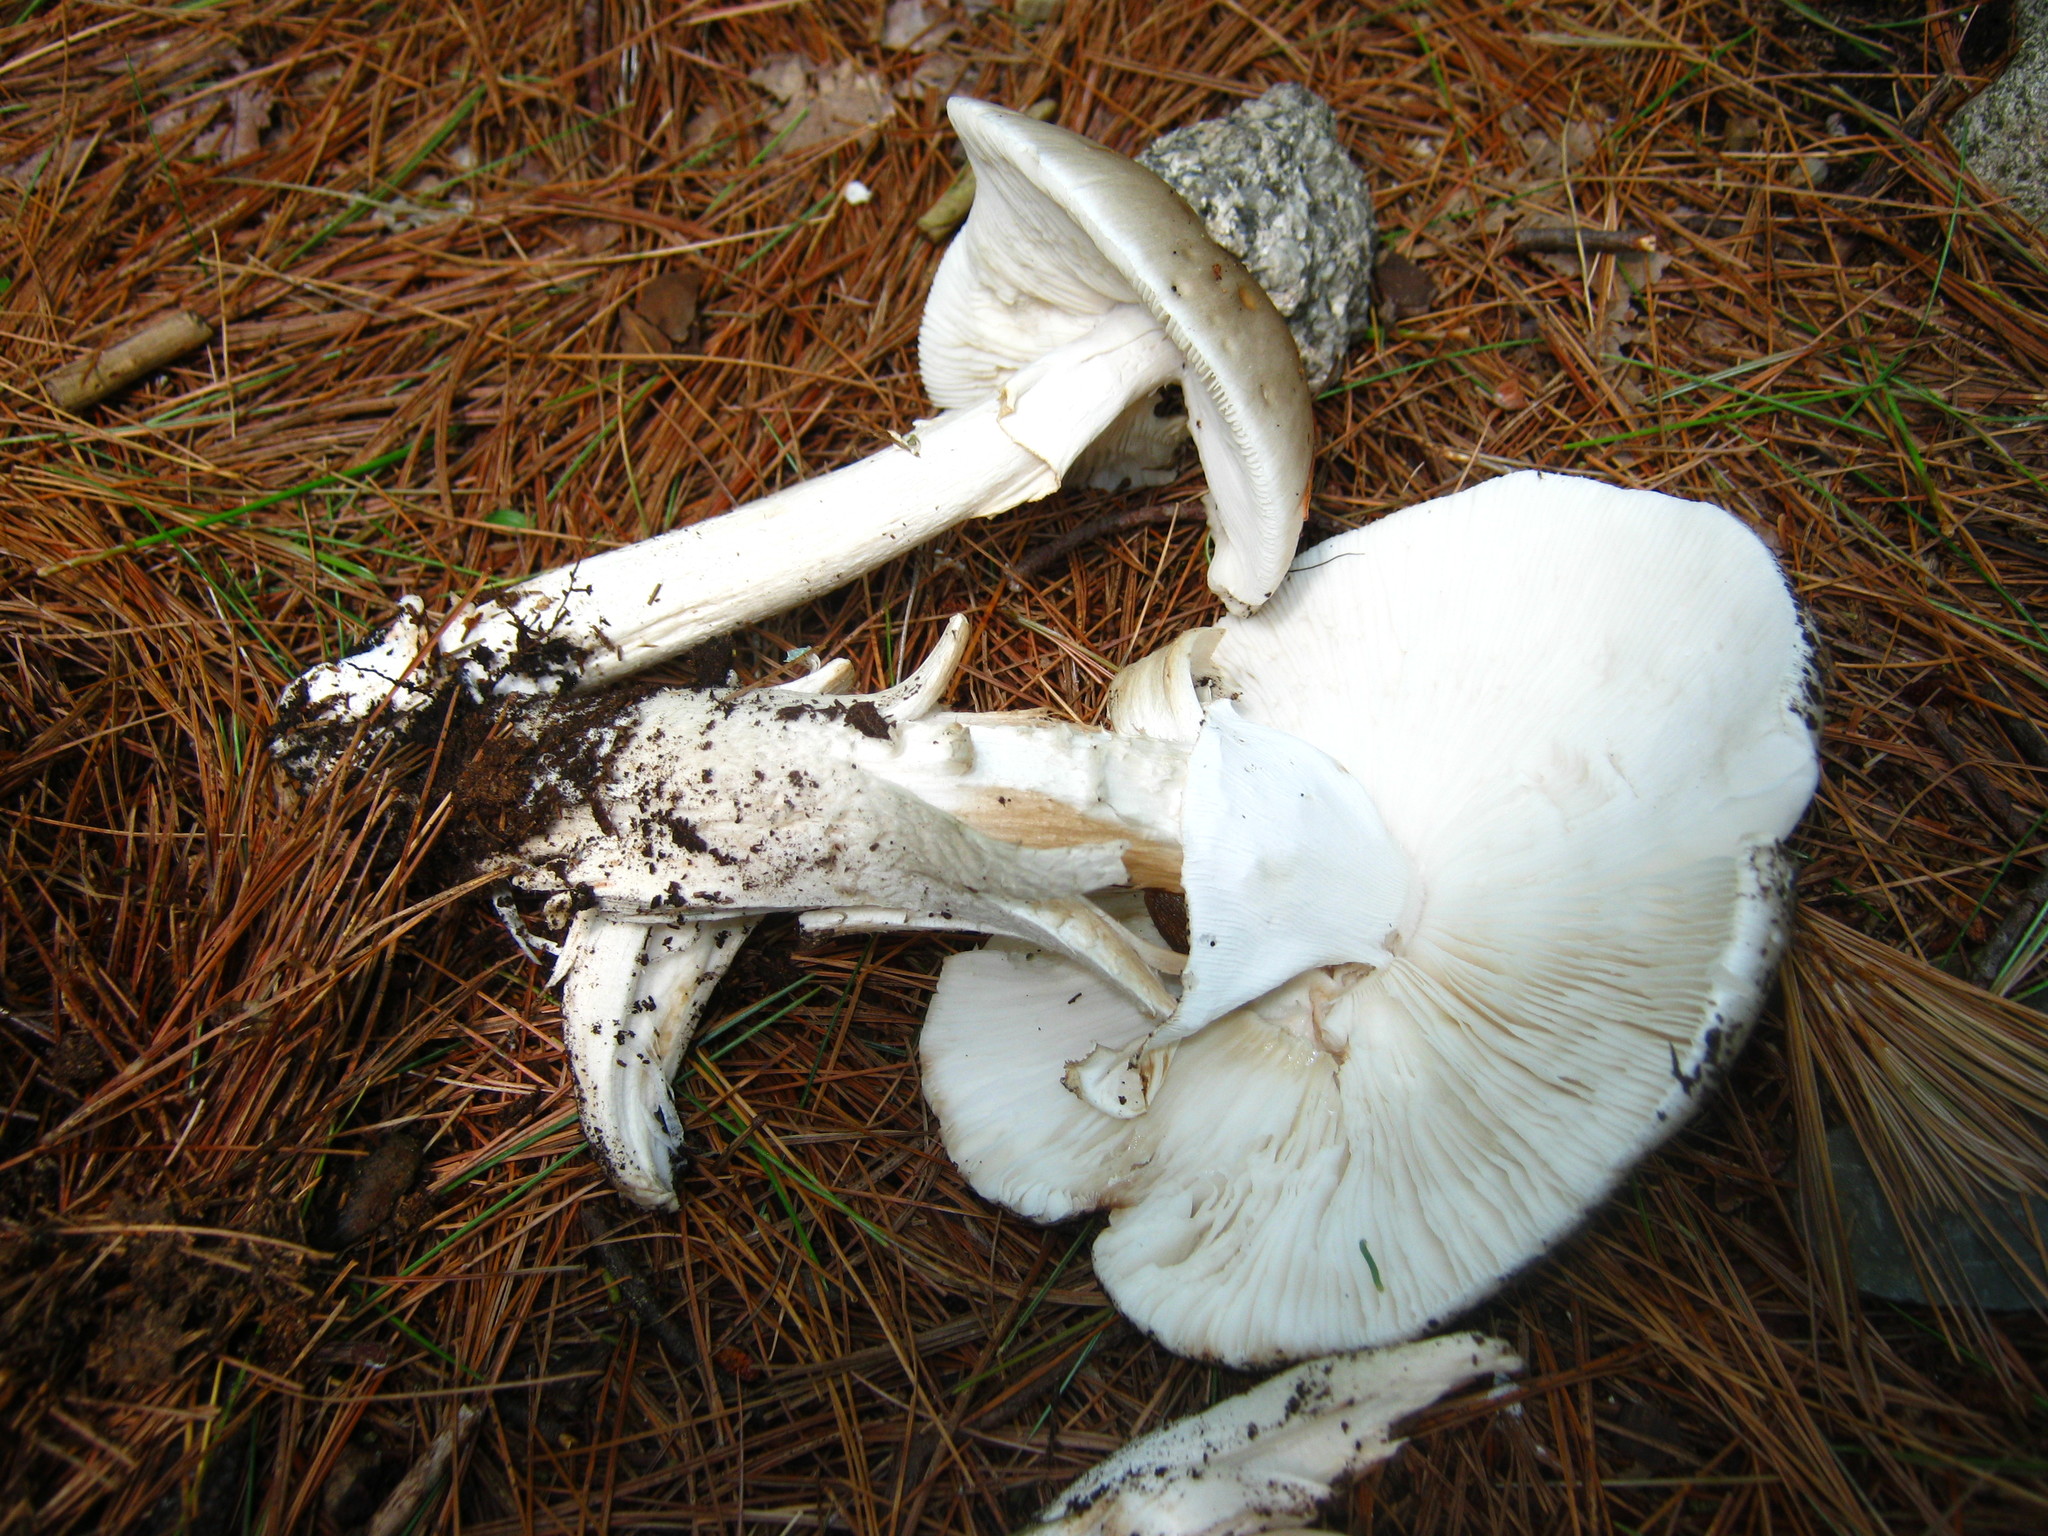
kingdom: Fungi
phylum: Basidiomycota
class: Agaricomycetes
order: Agaricales
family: Amanitaceae
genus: Amanita
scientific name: Amanita submaculata
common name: Ball gown amanita
